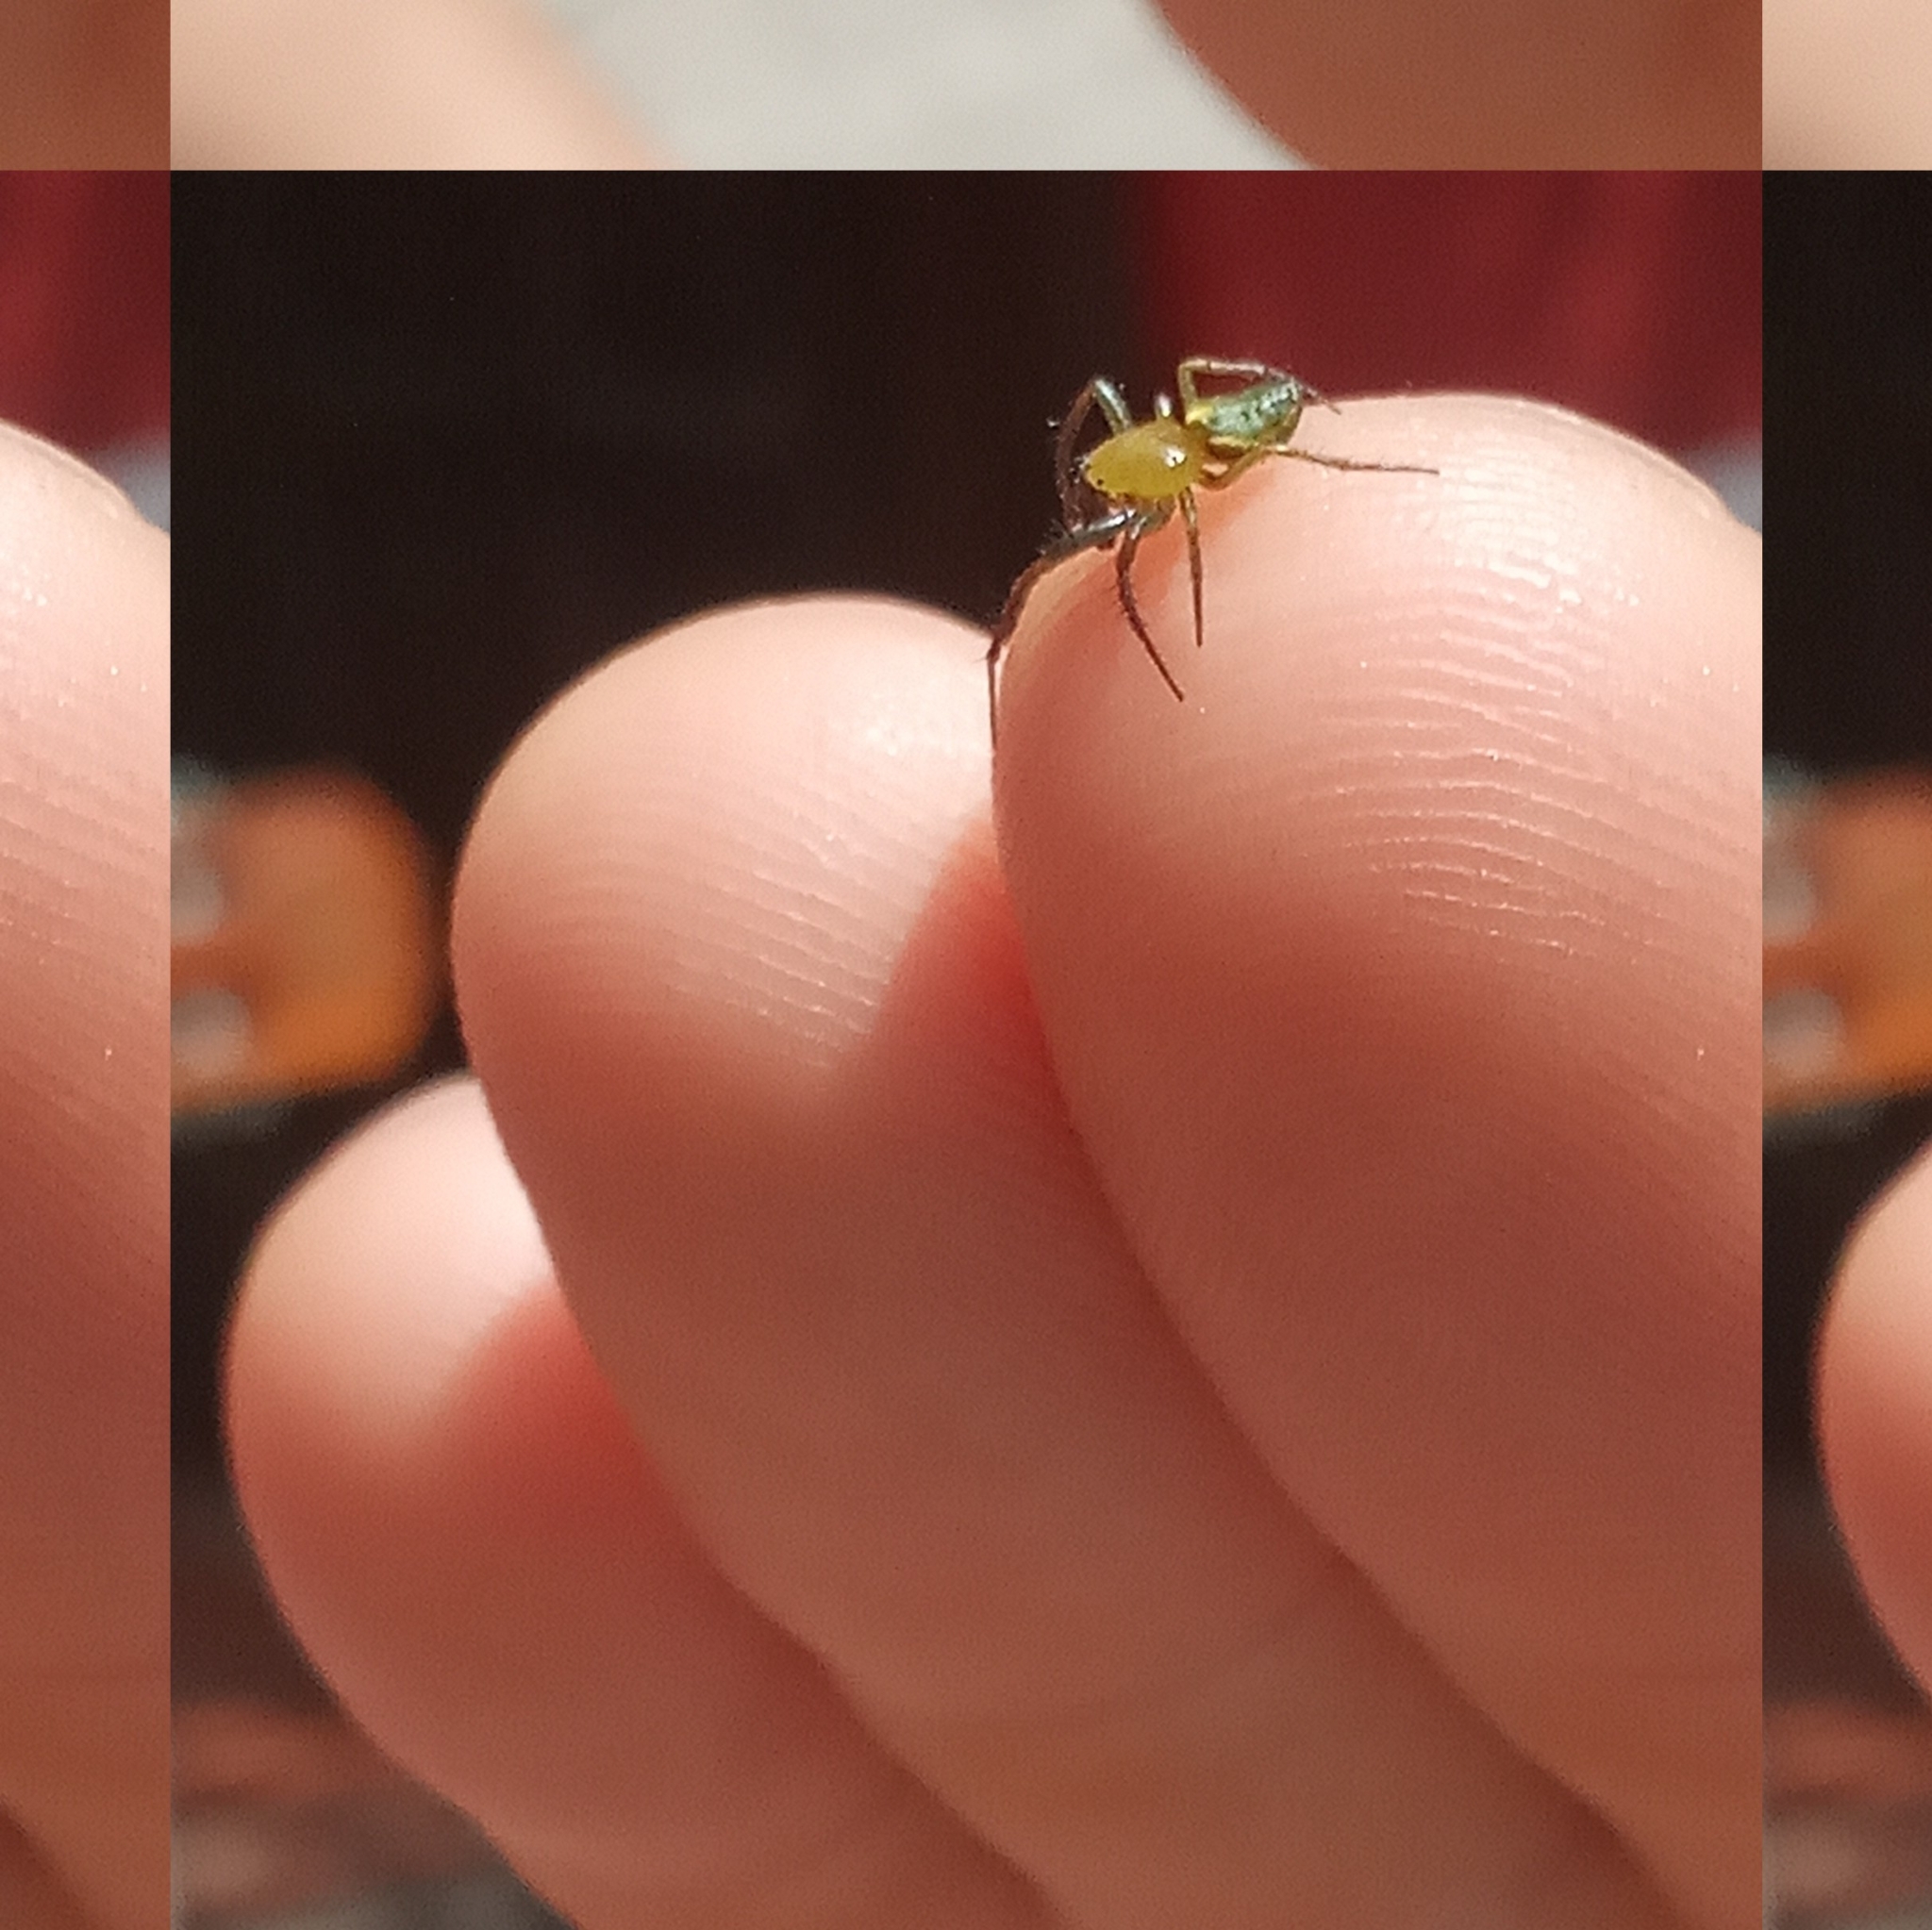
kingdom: Animalia
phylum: Arthropoda
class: Arachnida
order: Araneae
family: Araneidae
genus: Alpaida
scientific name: Alpaida costai
